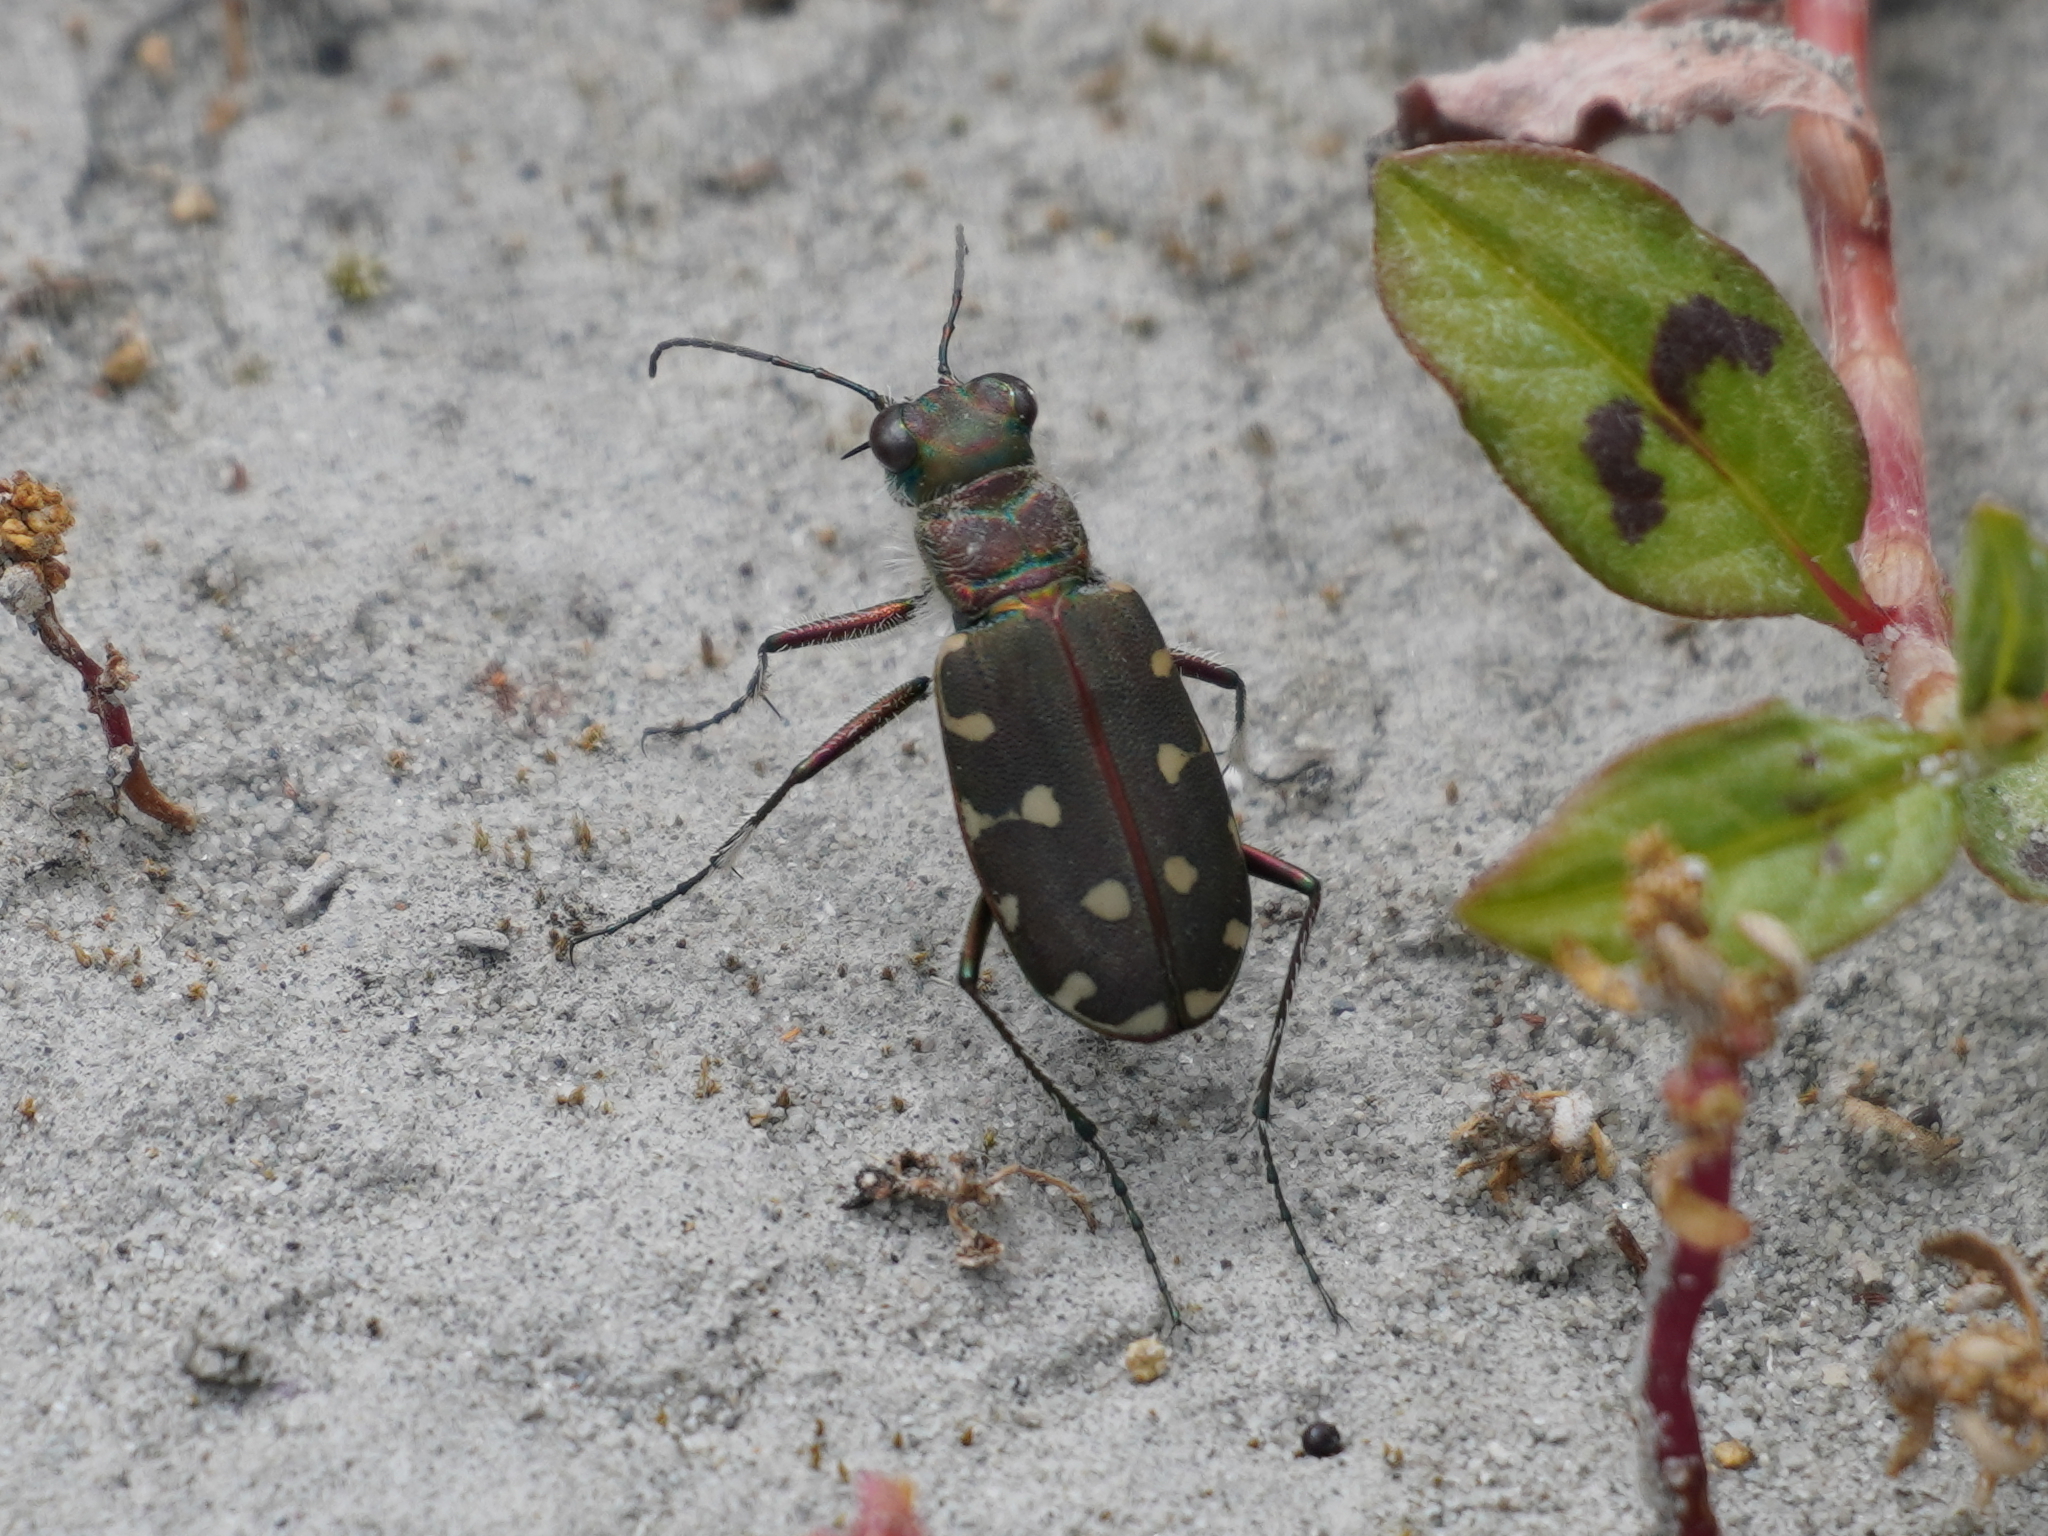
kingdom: Animalia
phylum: Arthropoda
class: Insecta
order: Coleoptera
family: Carabidae
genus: Cicindela
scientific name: Cicindela littoralis
